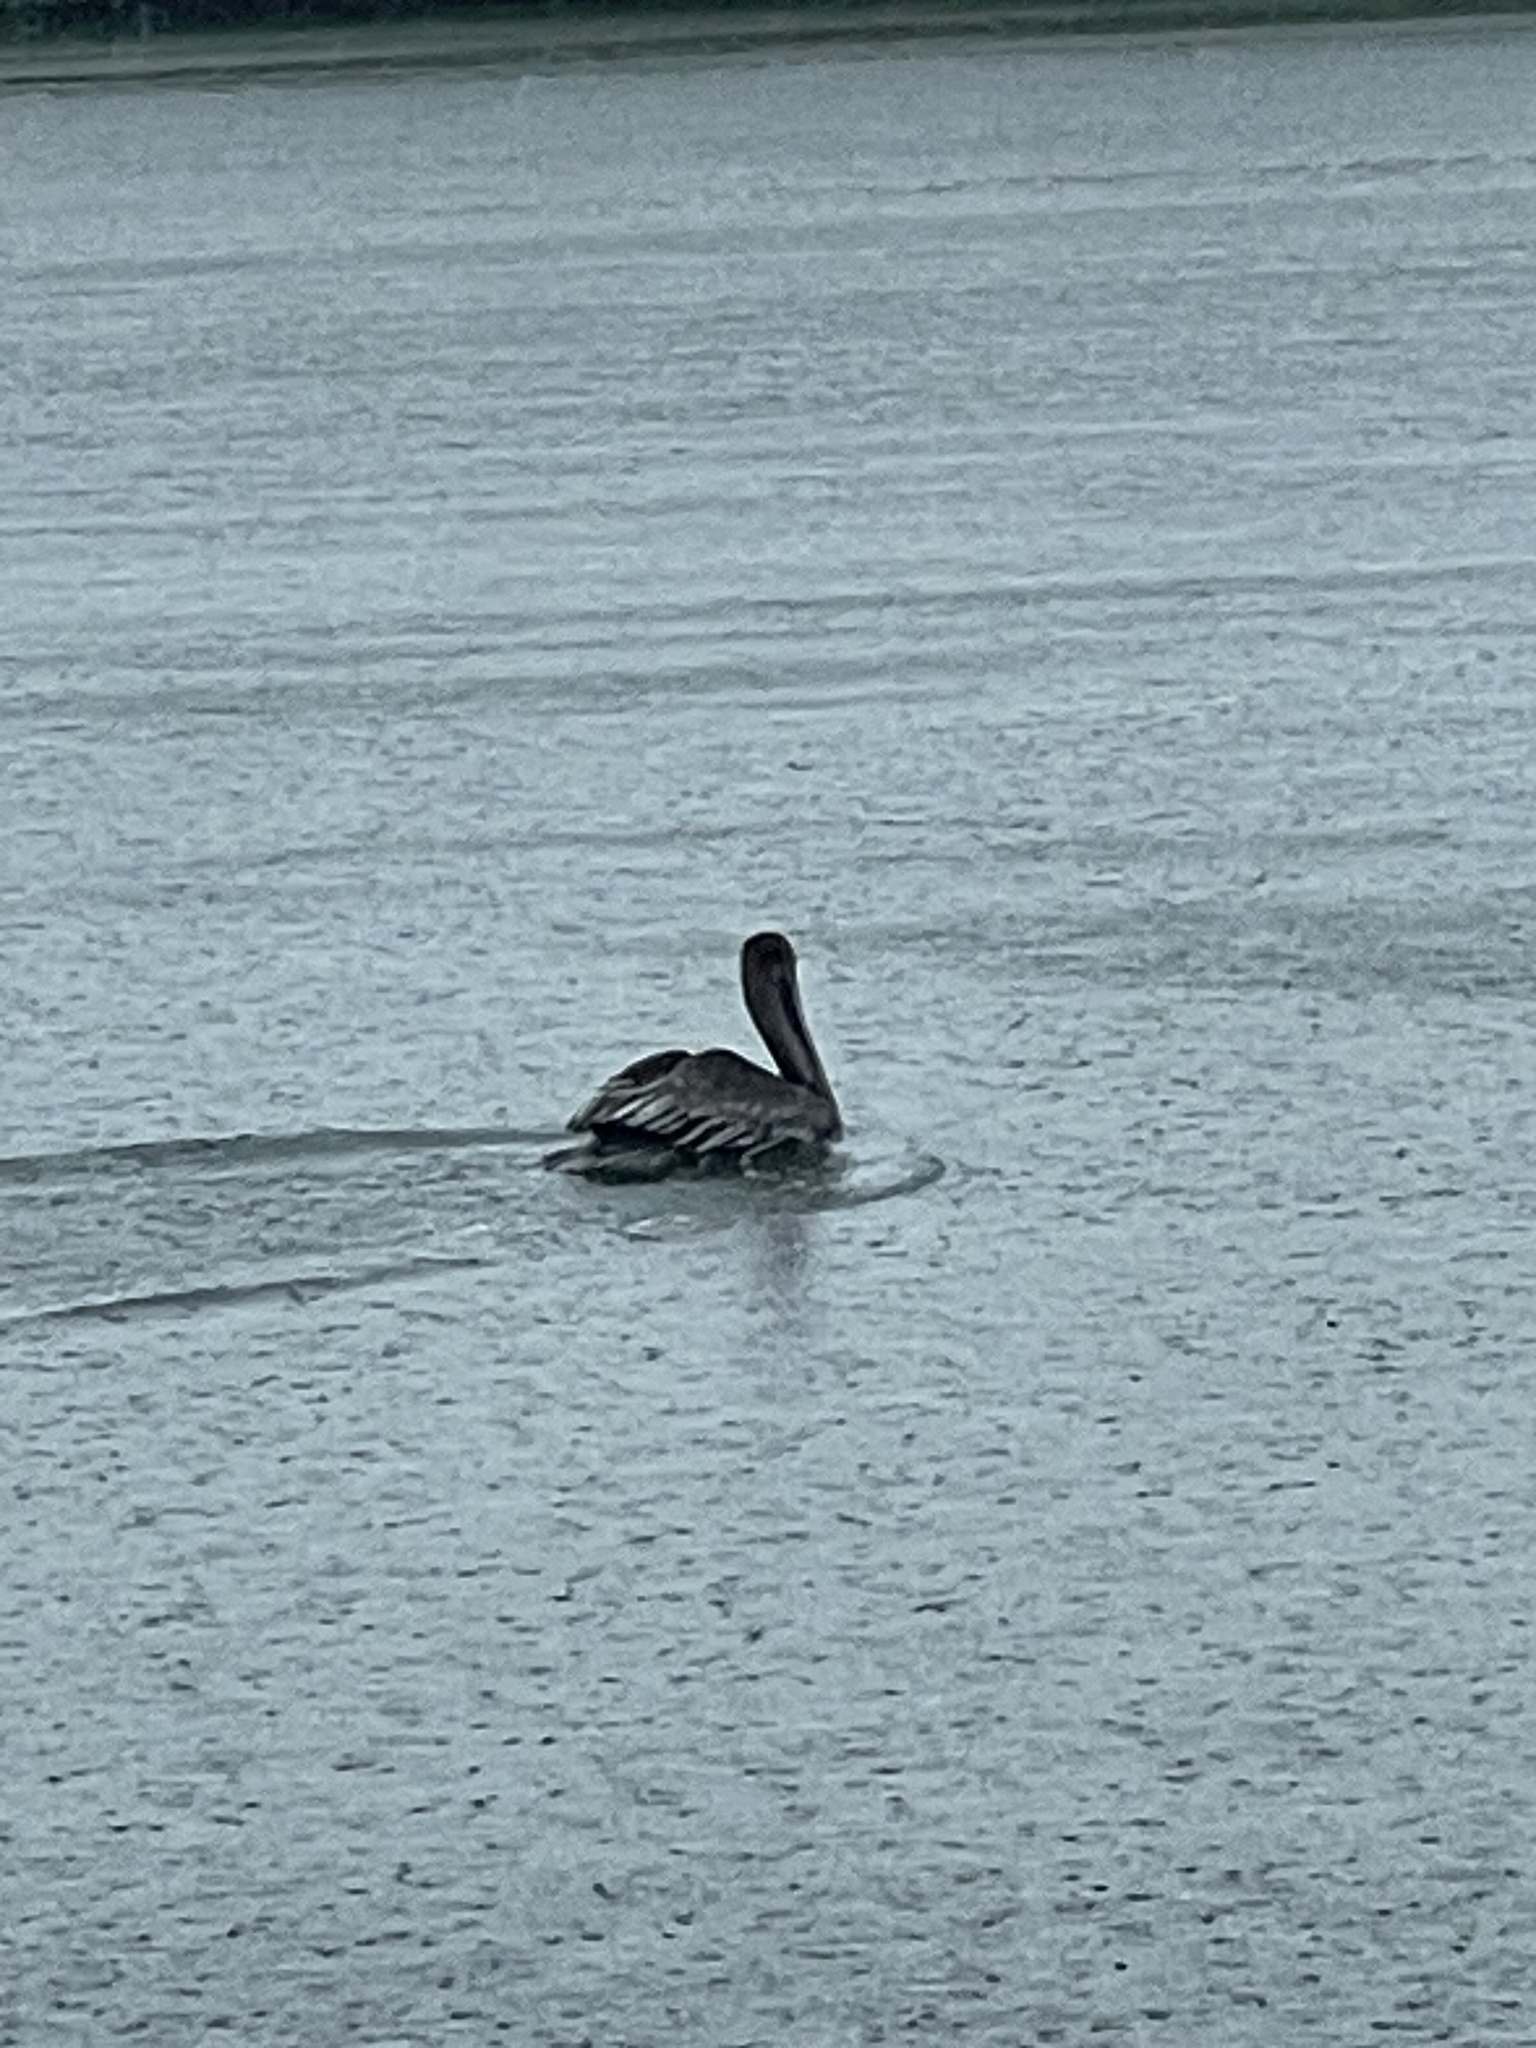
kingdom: Animalia
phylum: Chordata
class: Aves
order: Pelecaniformes
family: Pelecanidae
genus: Pelecanus
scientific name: Pelecanus occidentalis
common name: Brown pelican
